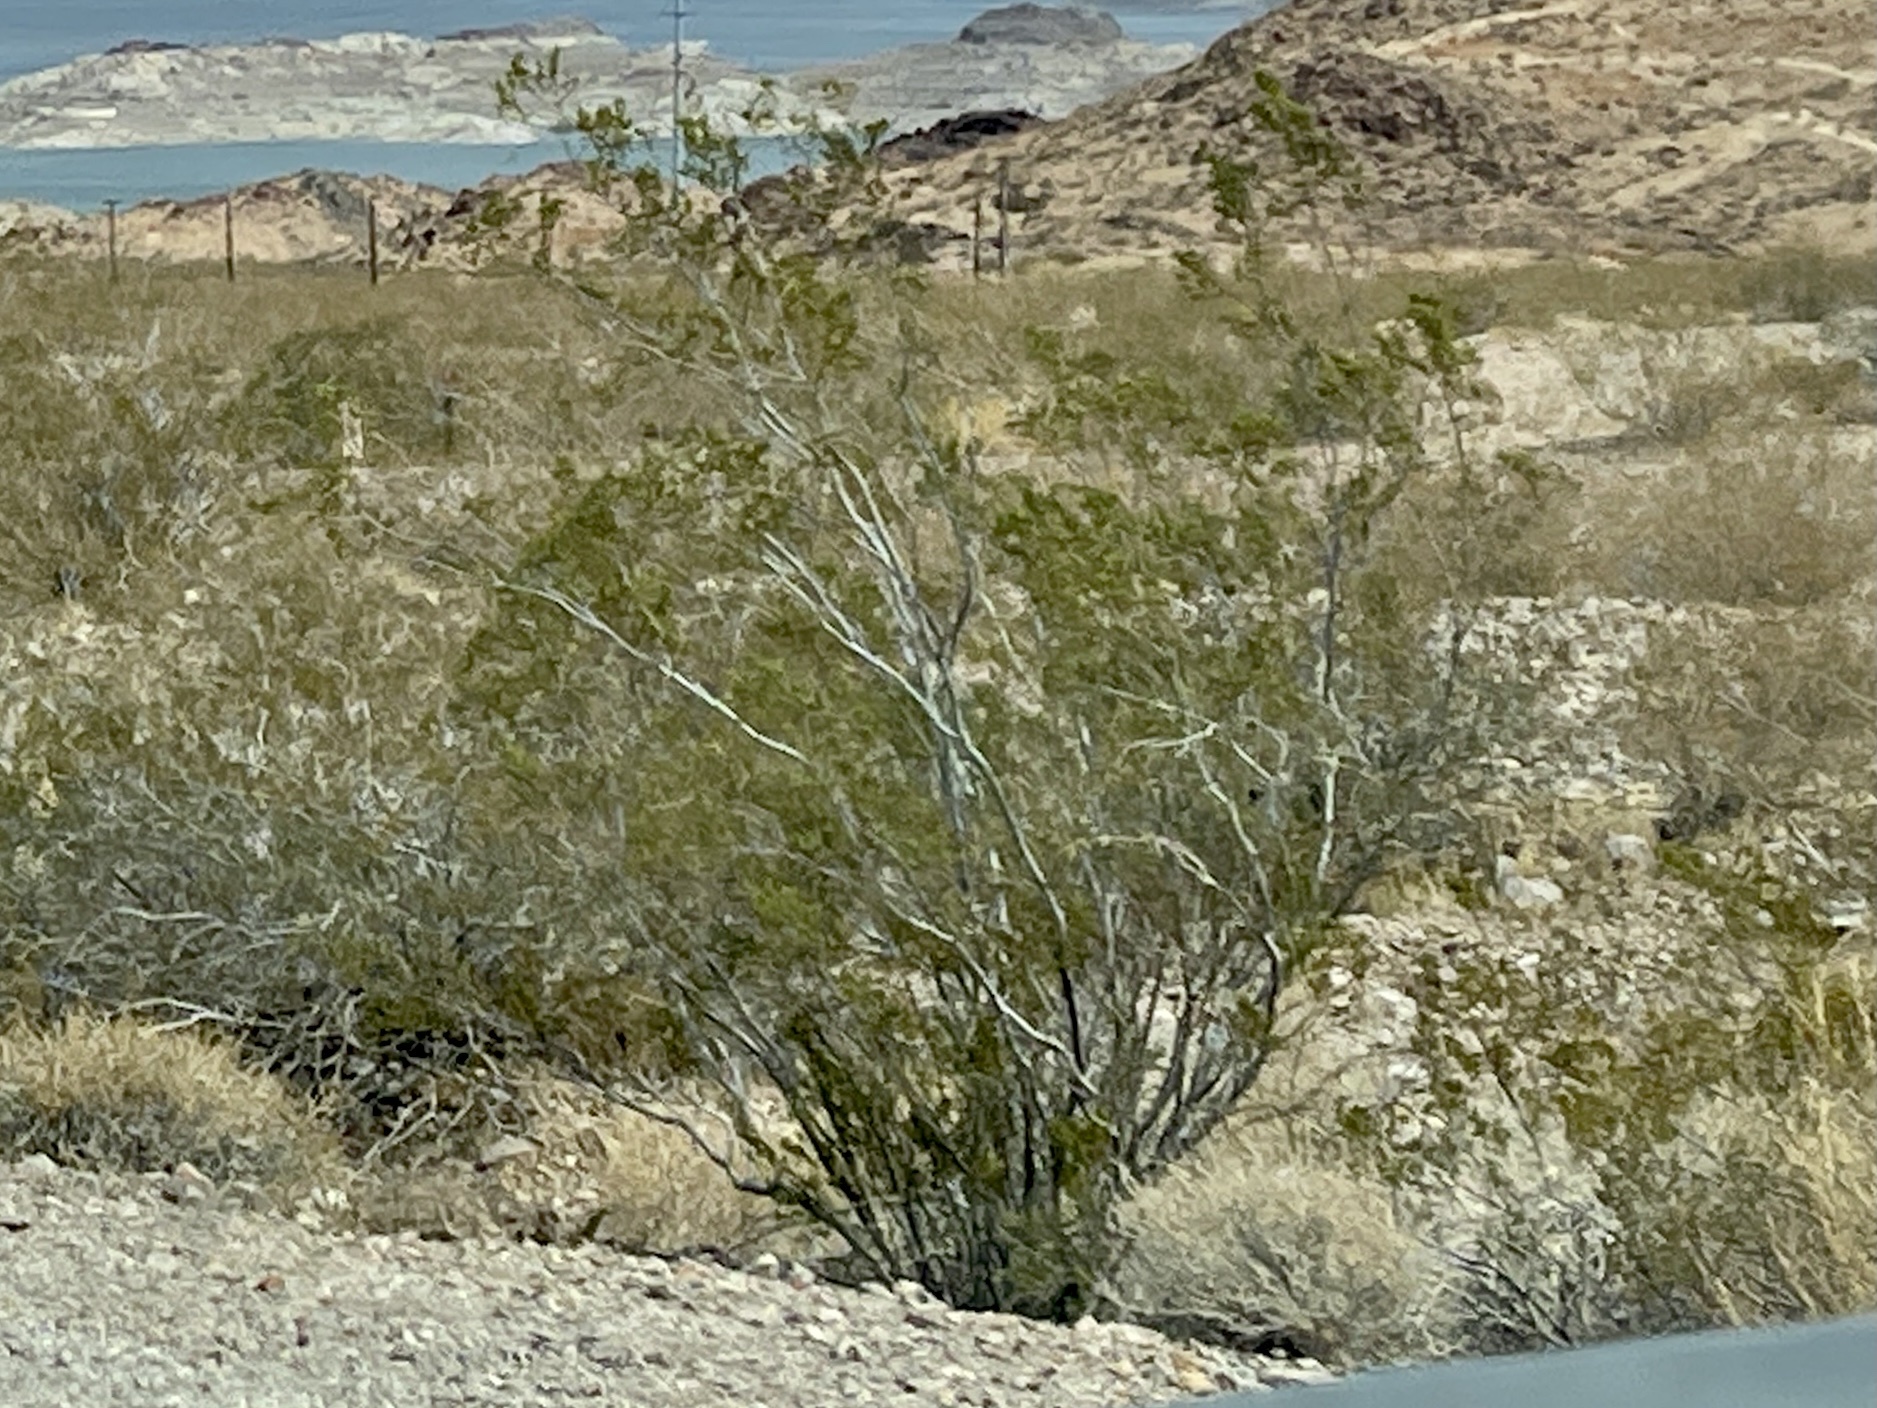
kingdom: Plantae
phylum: Tracheophyta
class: Magnoliopsida
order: Zygophyllales
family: Zygophyllaceae
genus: Larrea
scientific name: Larrea tridentata
